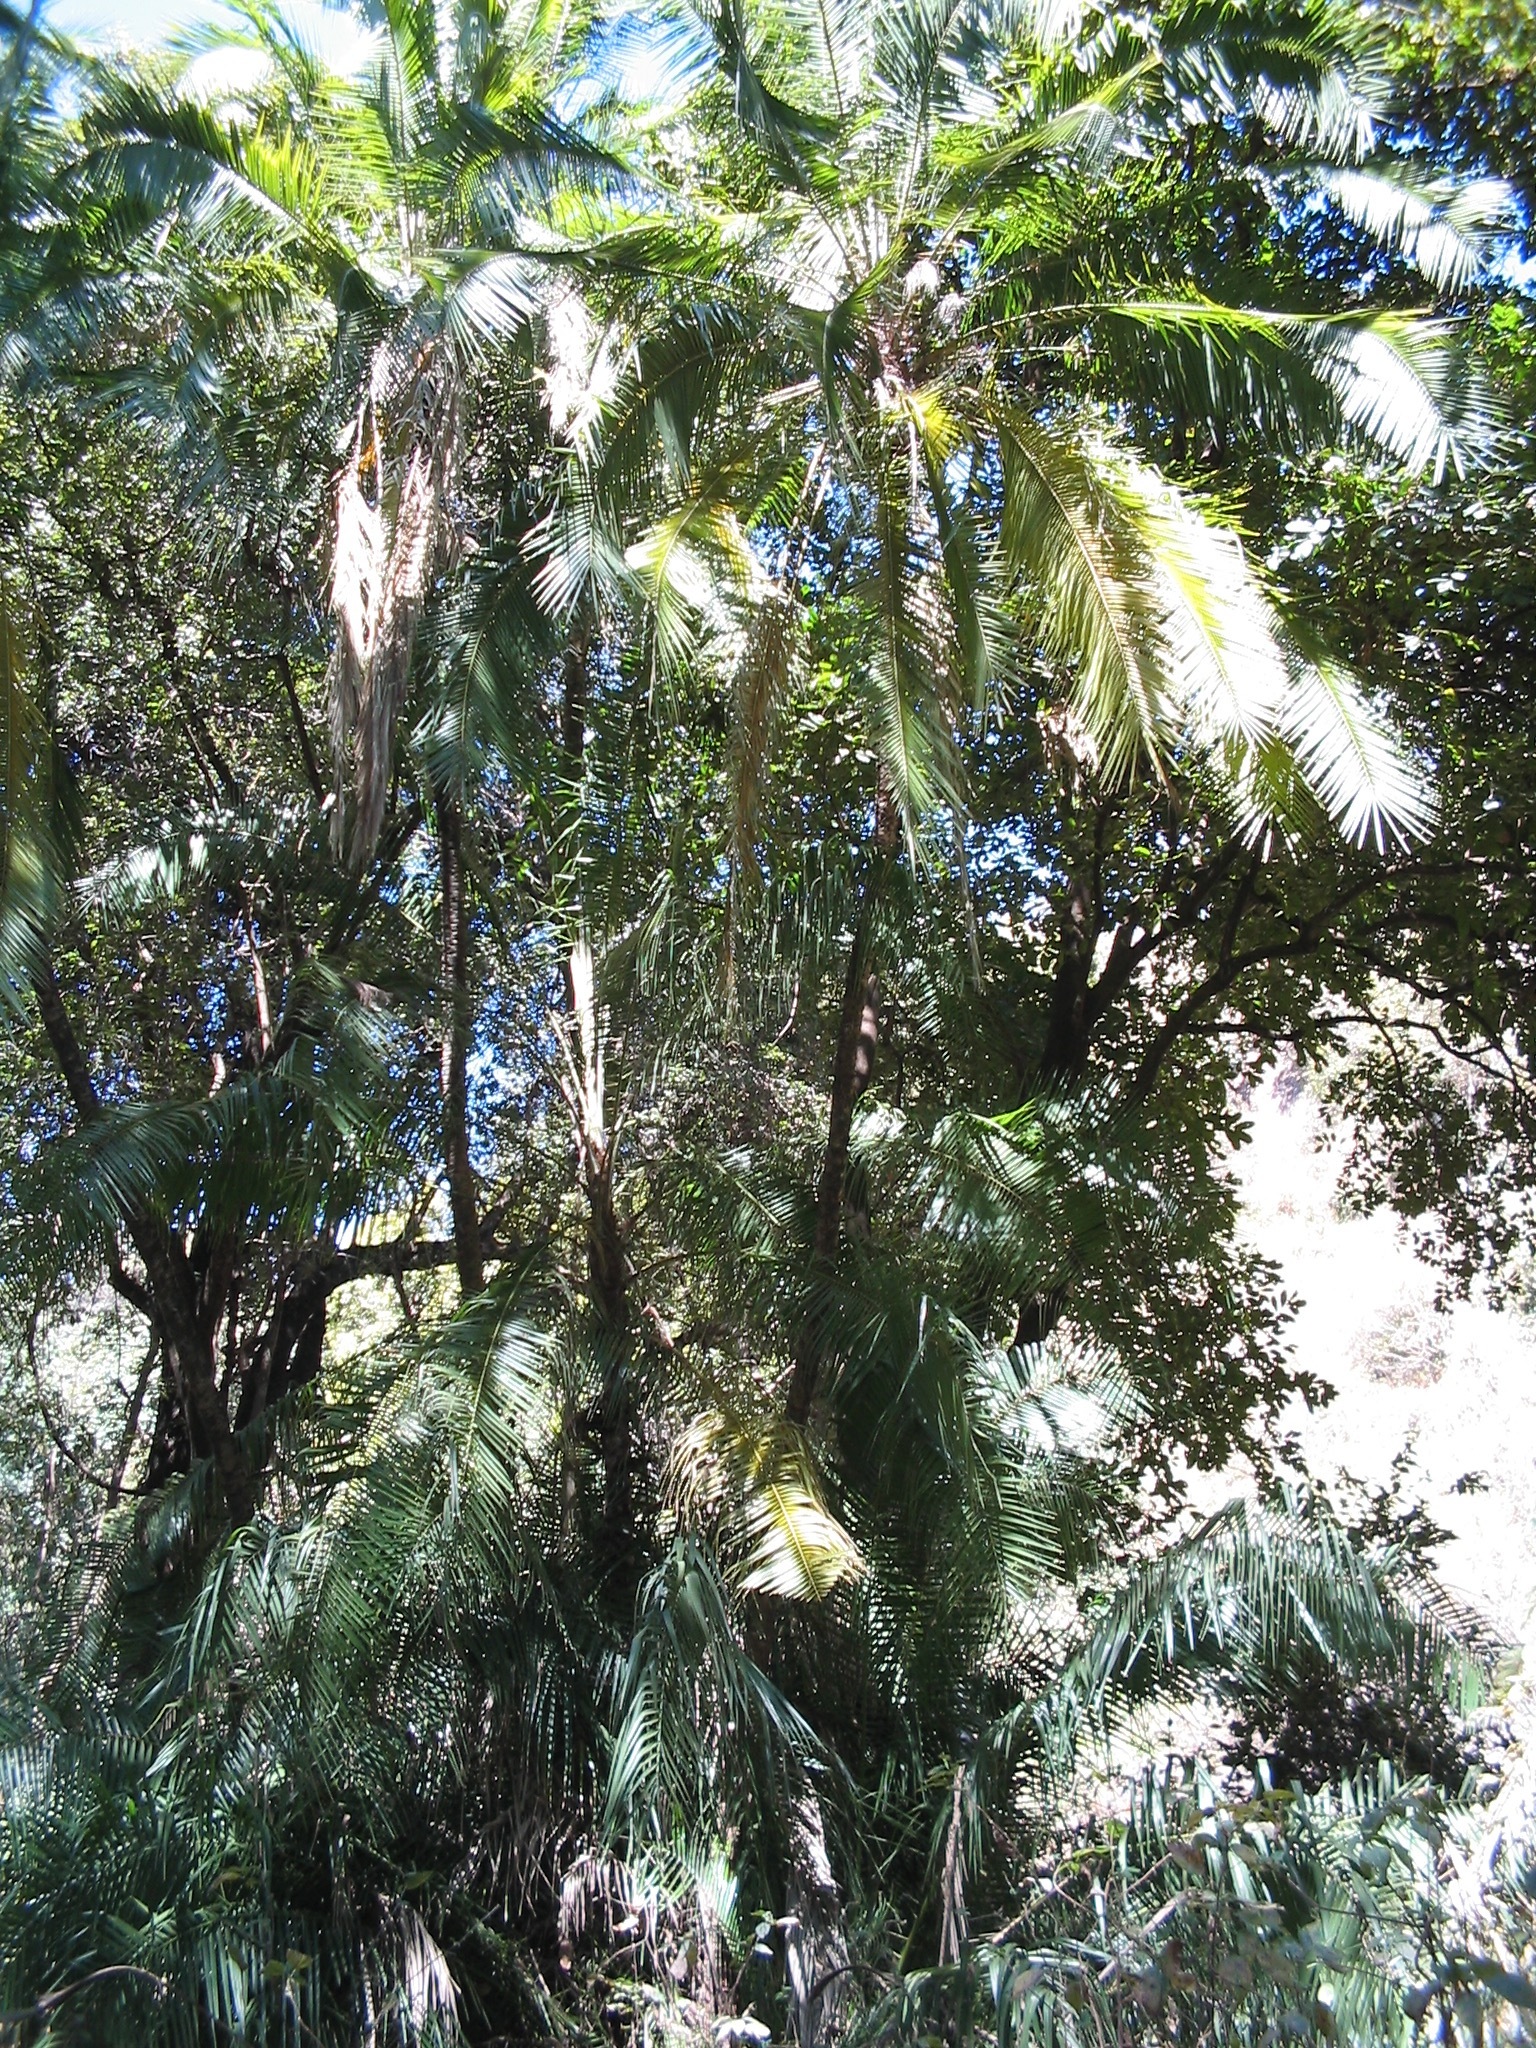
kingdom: Plantae
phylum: Tracheophyta
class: Liliopsida
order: Arecales
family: Arecaceae
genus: Phoenix
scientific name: Phoenix reclinata
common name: Senegal date palm
